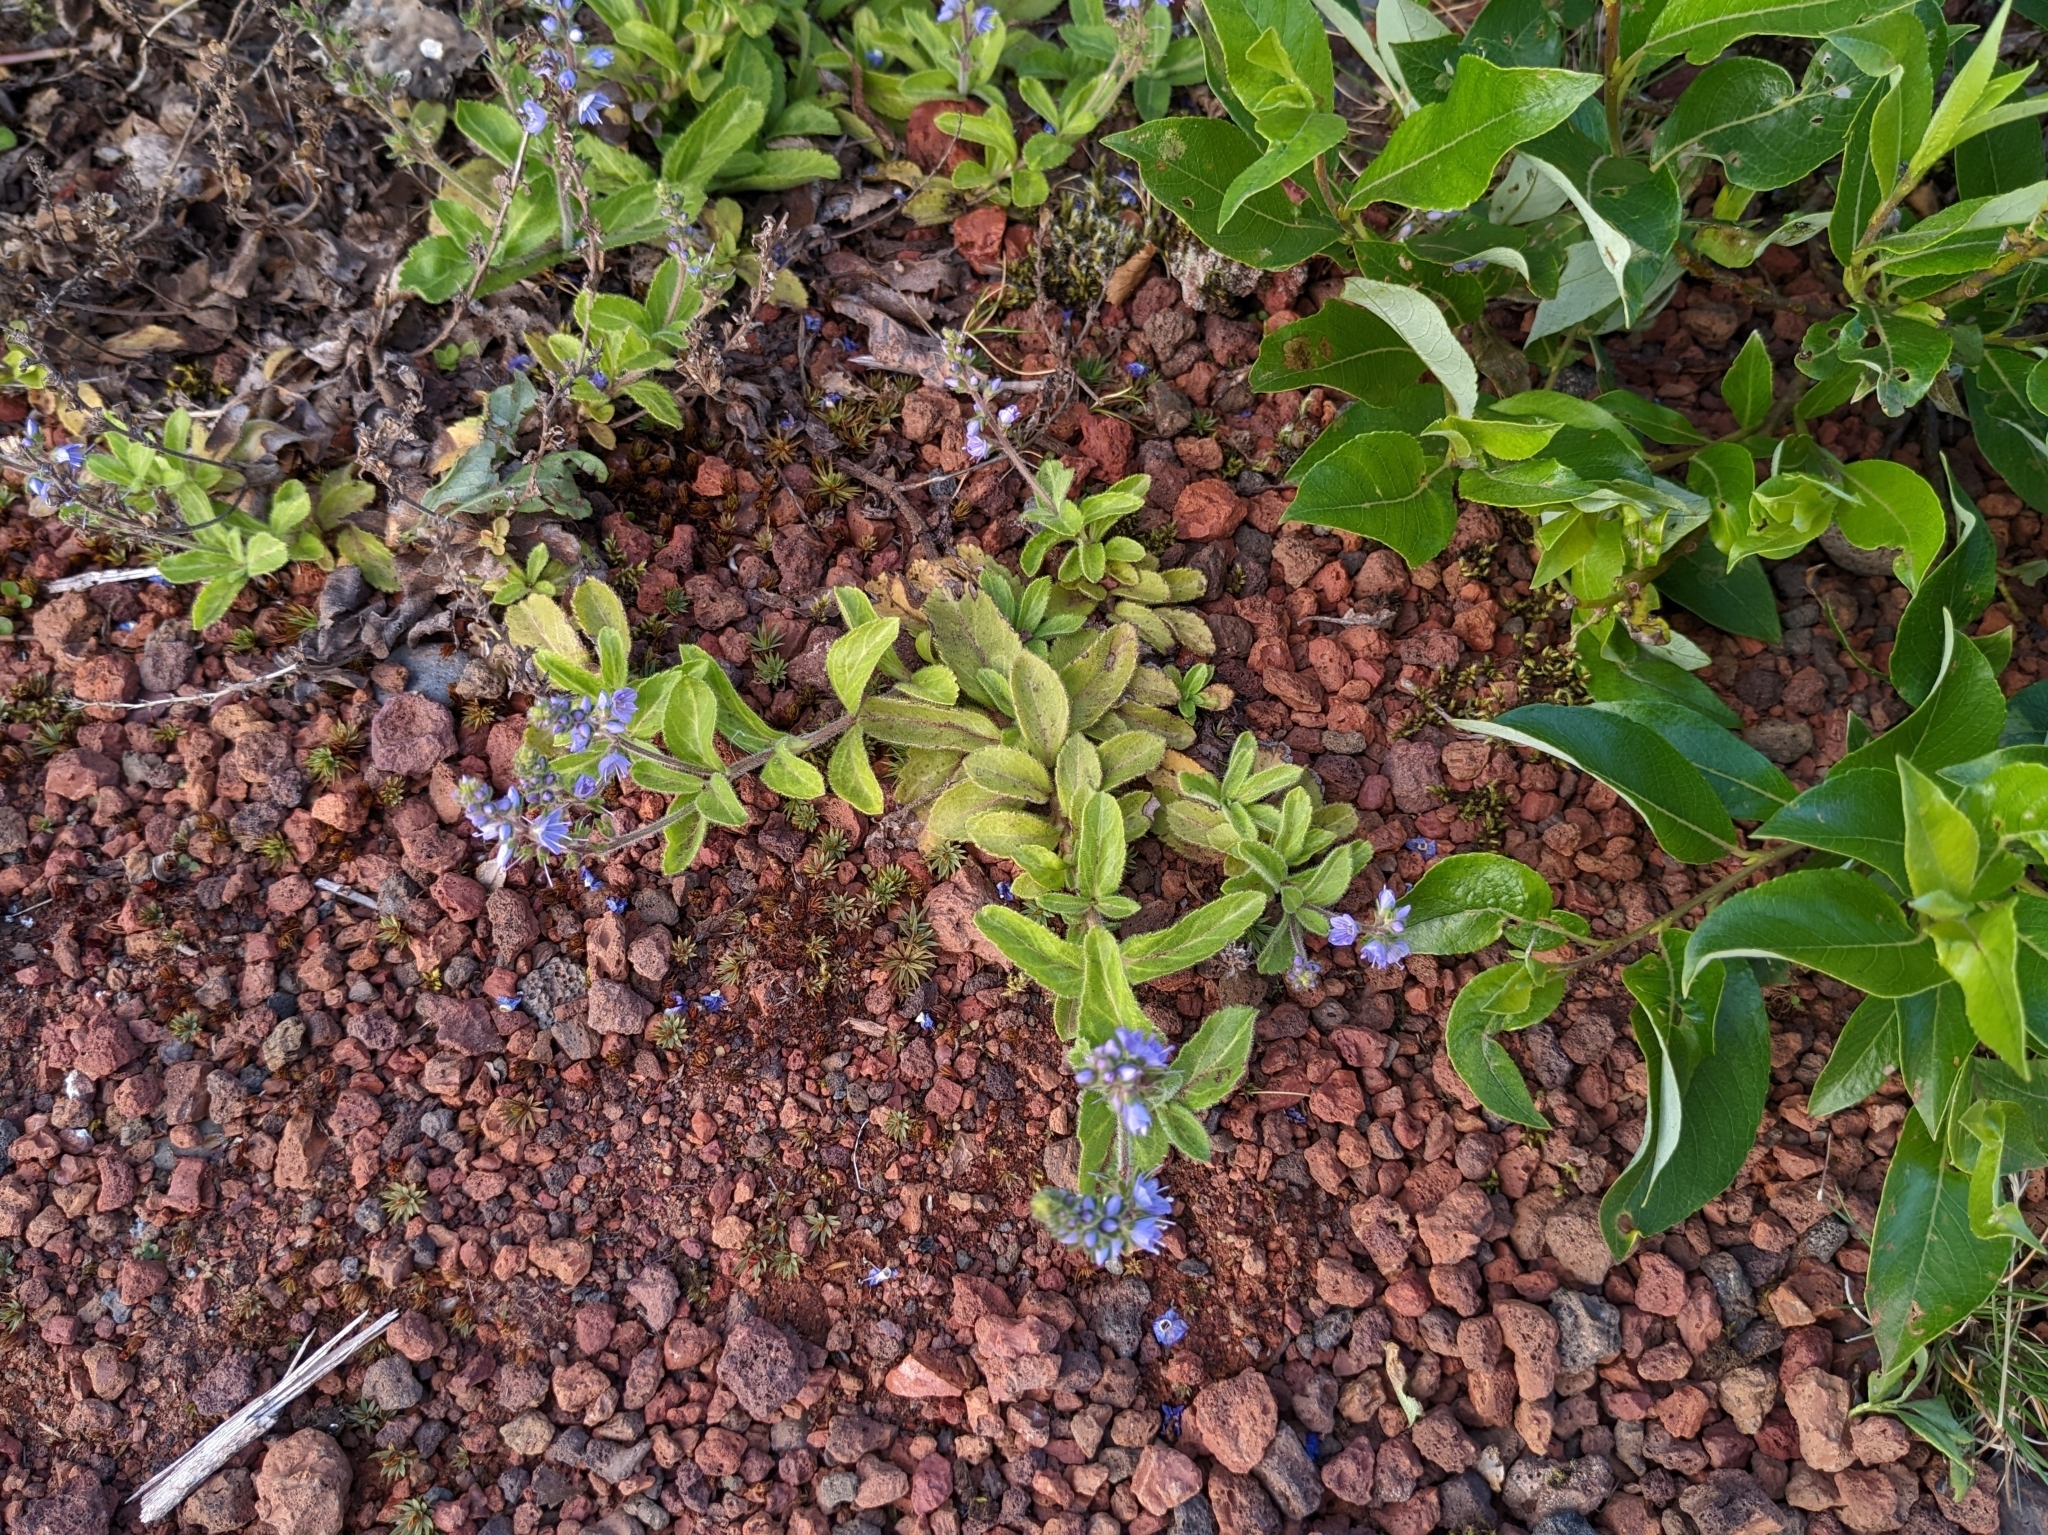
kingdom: Plantae
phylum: Tracheophyta
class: Magnoliopsida
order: Lamiales
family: Plantaginaceae
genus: Veronica
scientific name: Veronica officinalis
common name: Common speedwell
